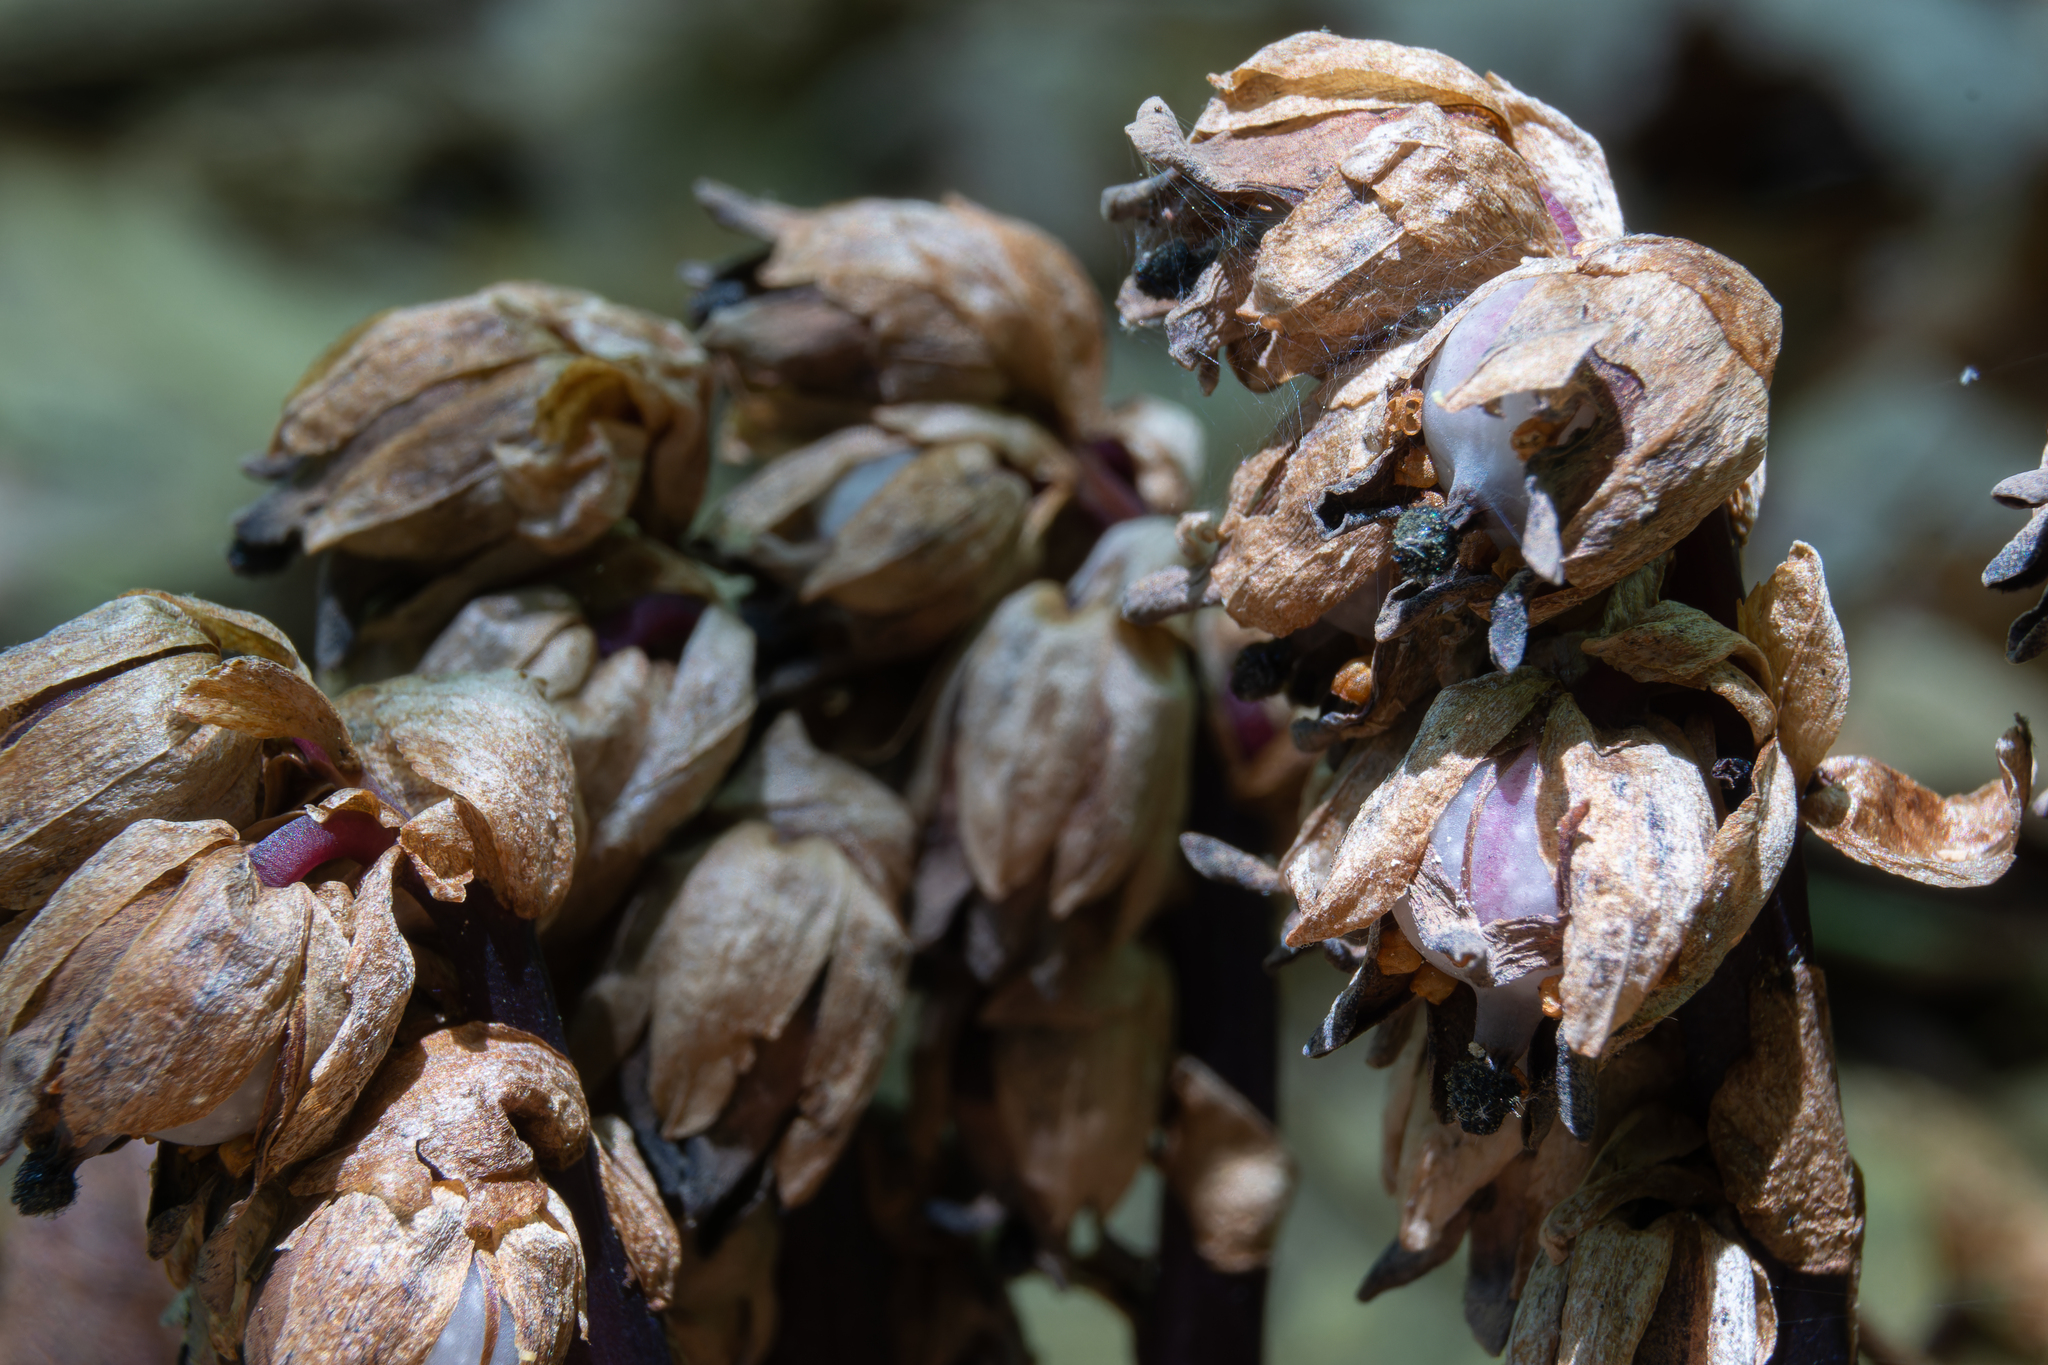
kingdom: Plantae
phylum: Tracheophyta
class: Magnoliopsida
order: Ericales
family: Ericaceae
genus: Monotropsis
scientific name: Monotropsis odorata
